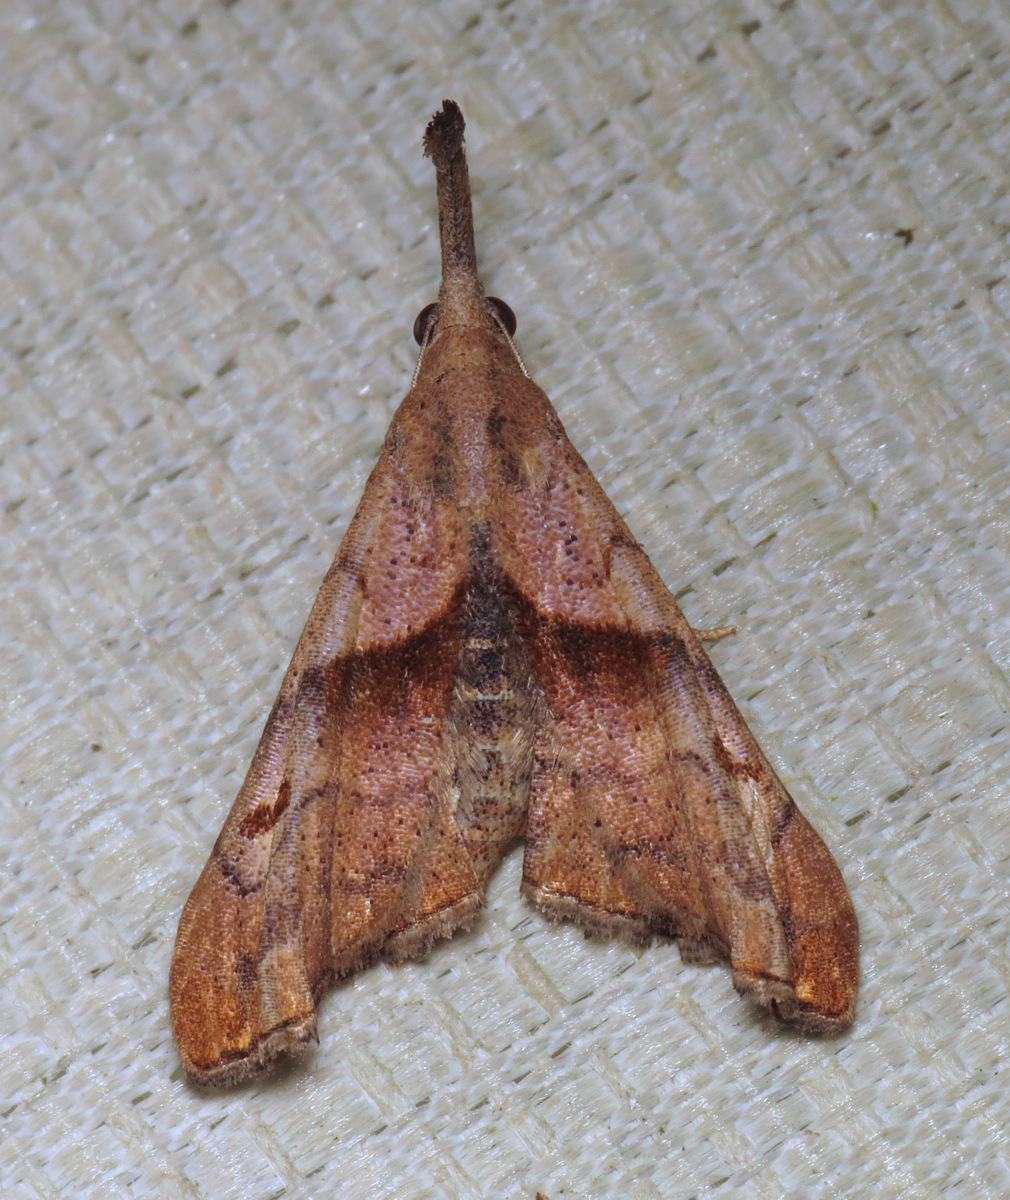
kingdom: Animalia
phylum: Arthropoda
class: Insecta
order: Lepidoptera
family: Erebidae
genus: Palthis
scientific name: Palthis angulalis
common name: Dark-spotted palthis moth
